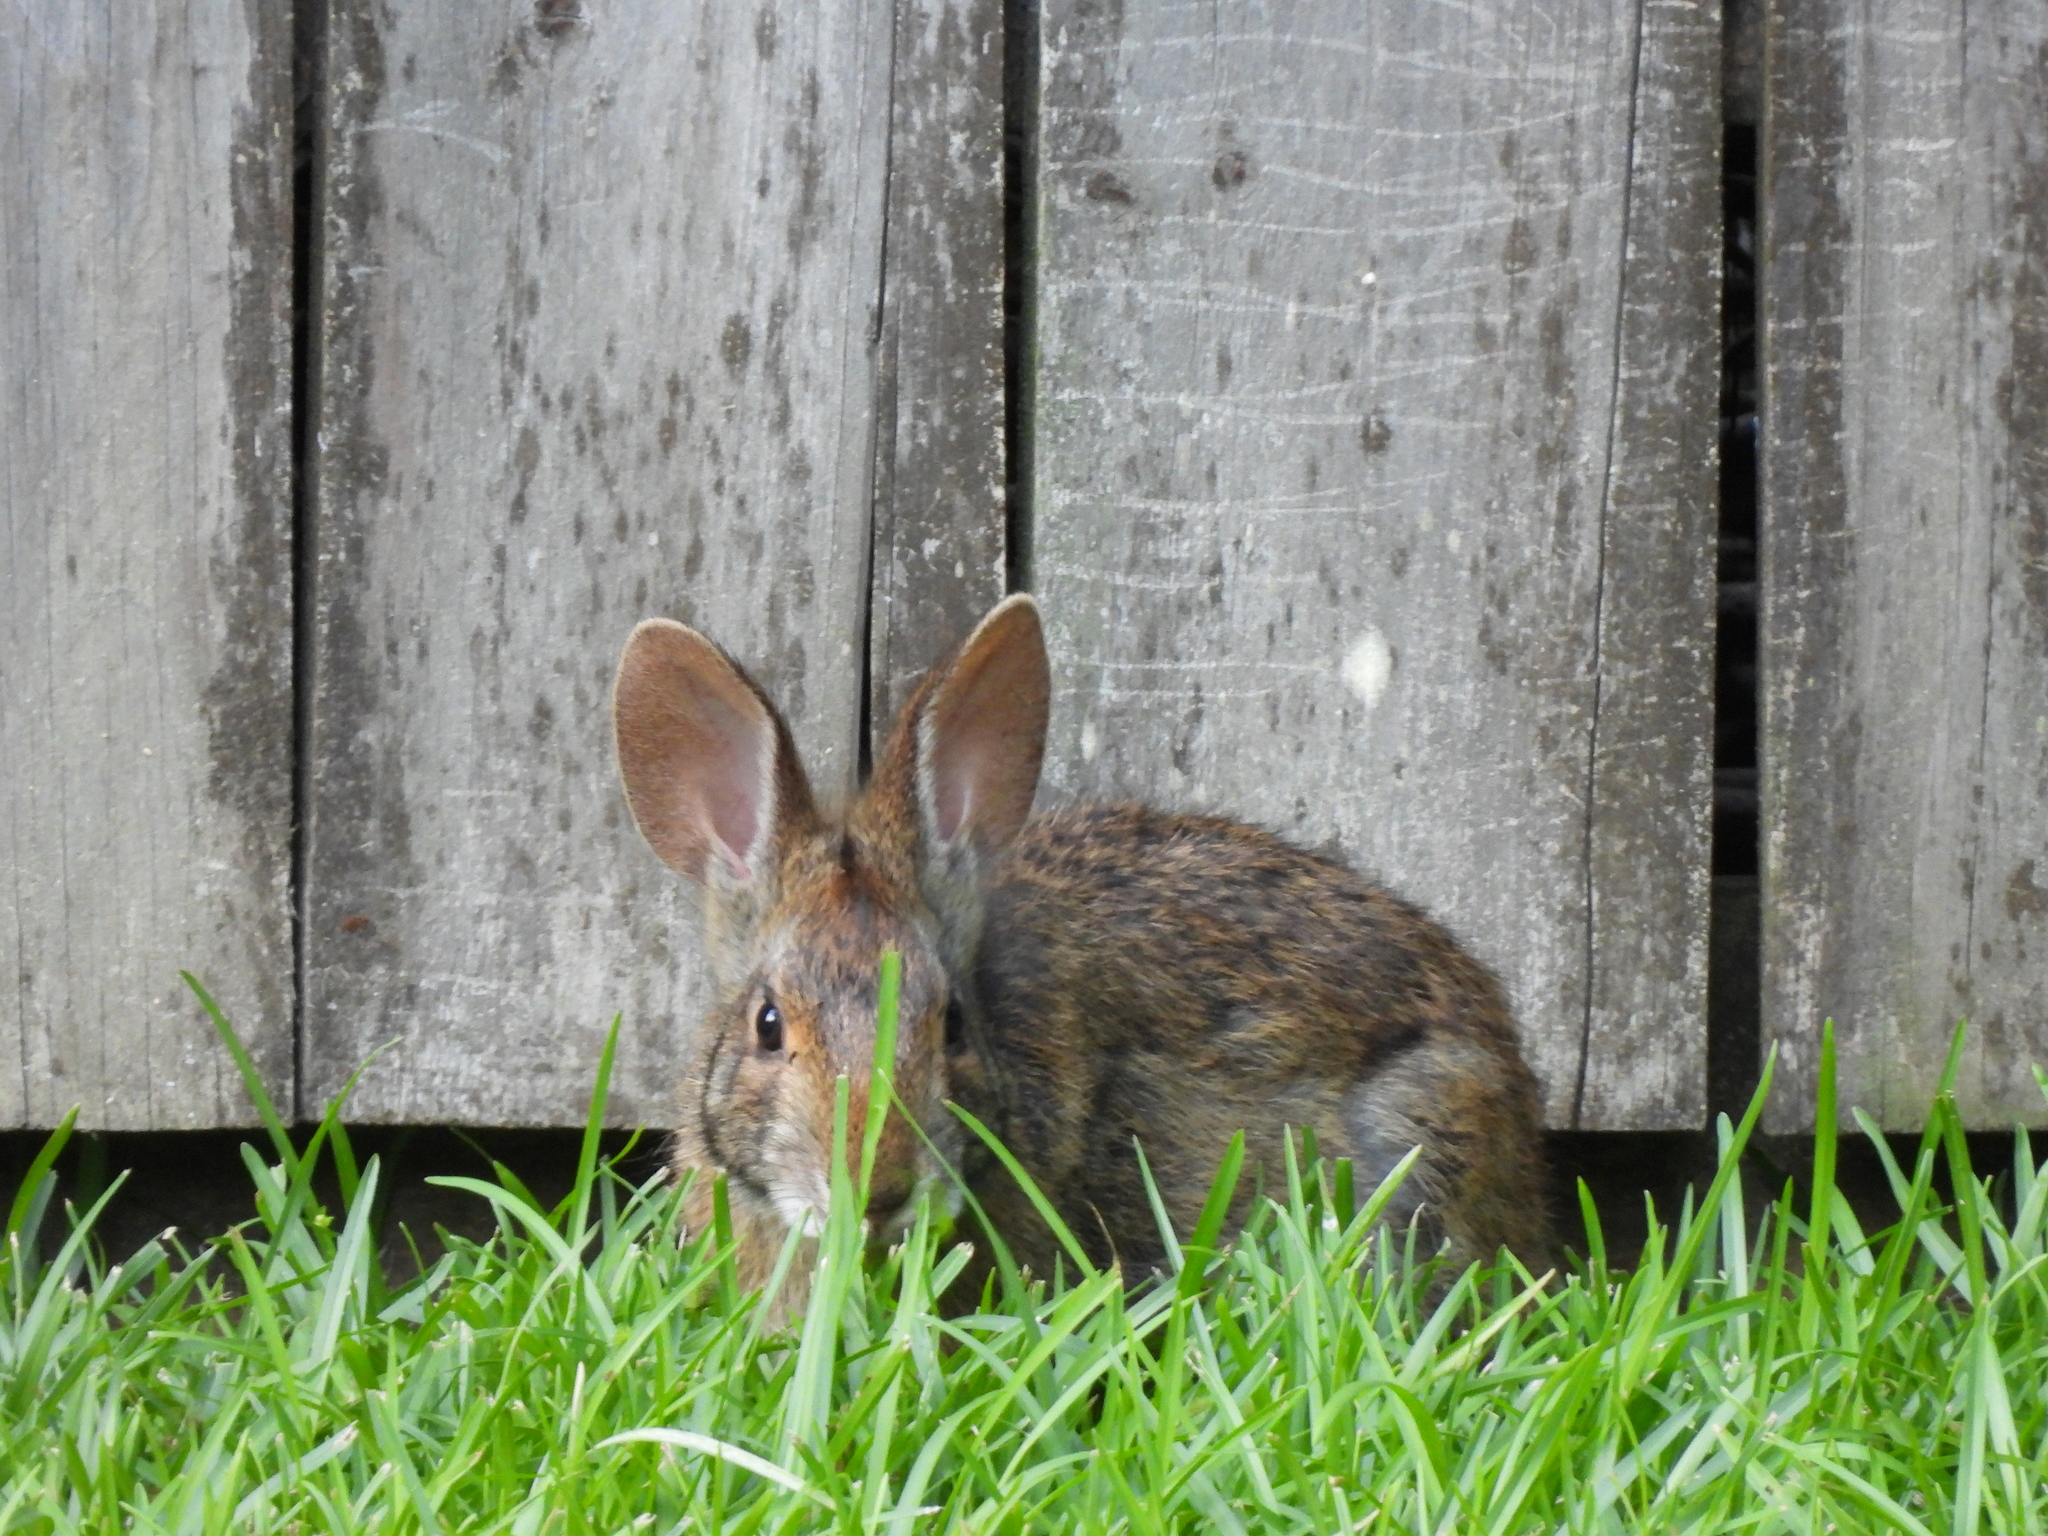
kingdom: Animalia
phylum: Chordata
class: Mammalia
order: Lagomorpha
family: Leporidae
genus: Sylvilagus
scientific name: Sylvilagus aquaticus
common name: Swamp rabbit
